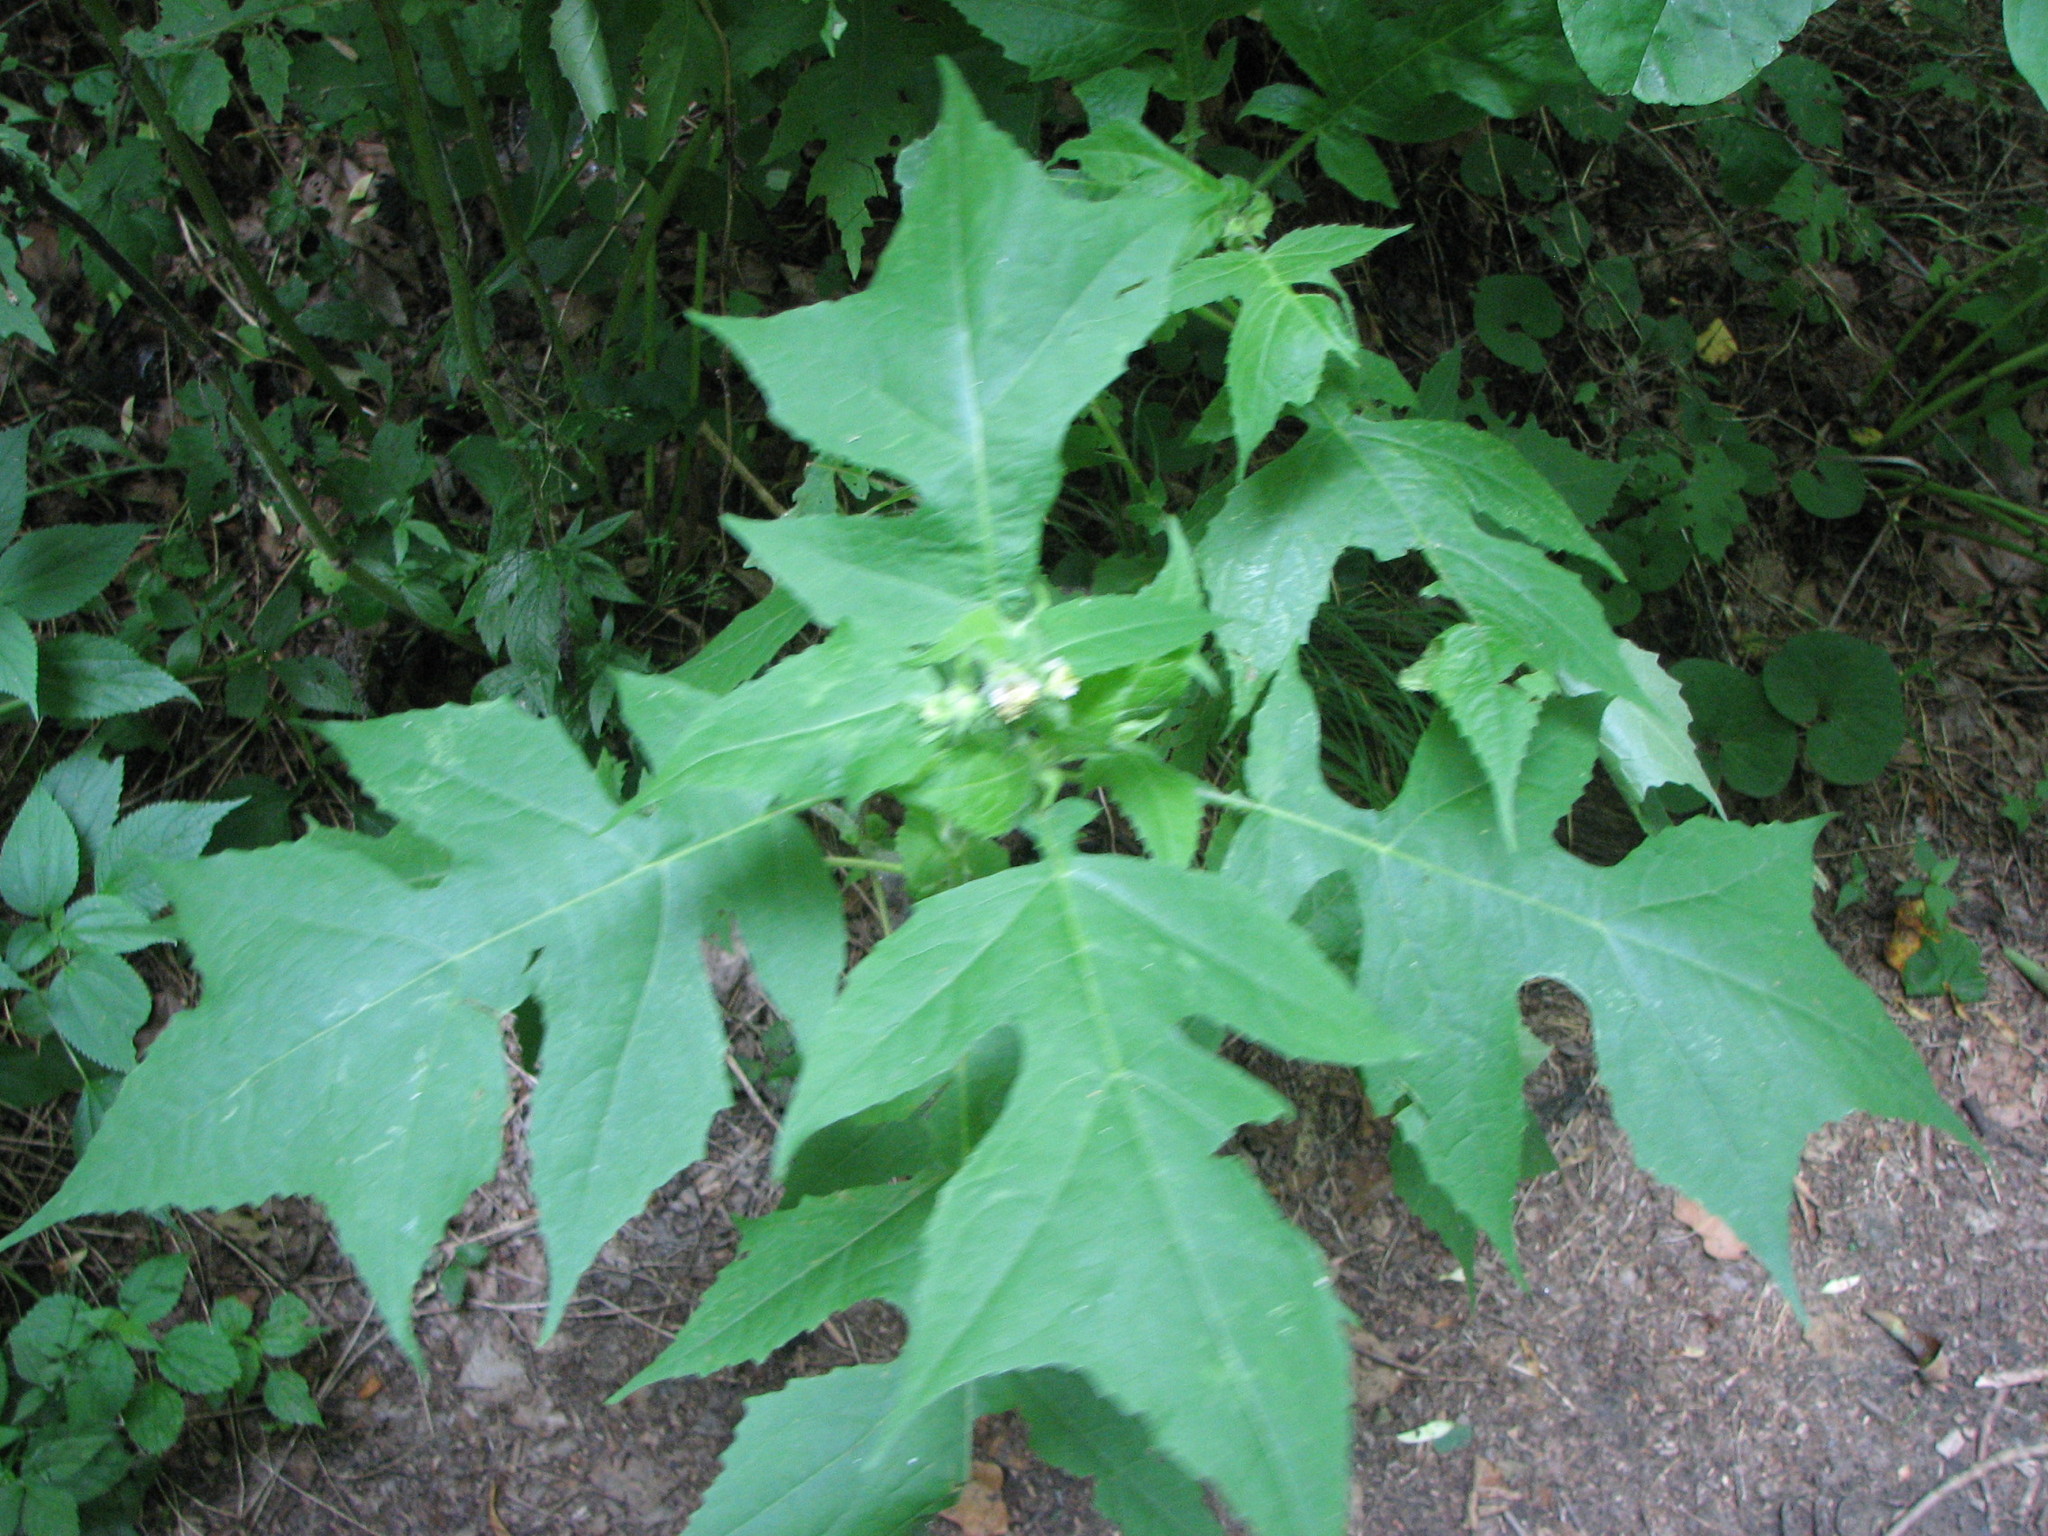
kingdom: Plantae
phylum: Tracheophyta
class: Magnoliopsida
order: Asterales
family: Asteraceae
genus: Polymnia
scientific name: Polymnia canadensis
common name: Pale-flowered leafcup
